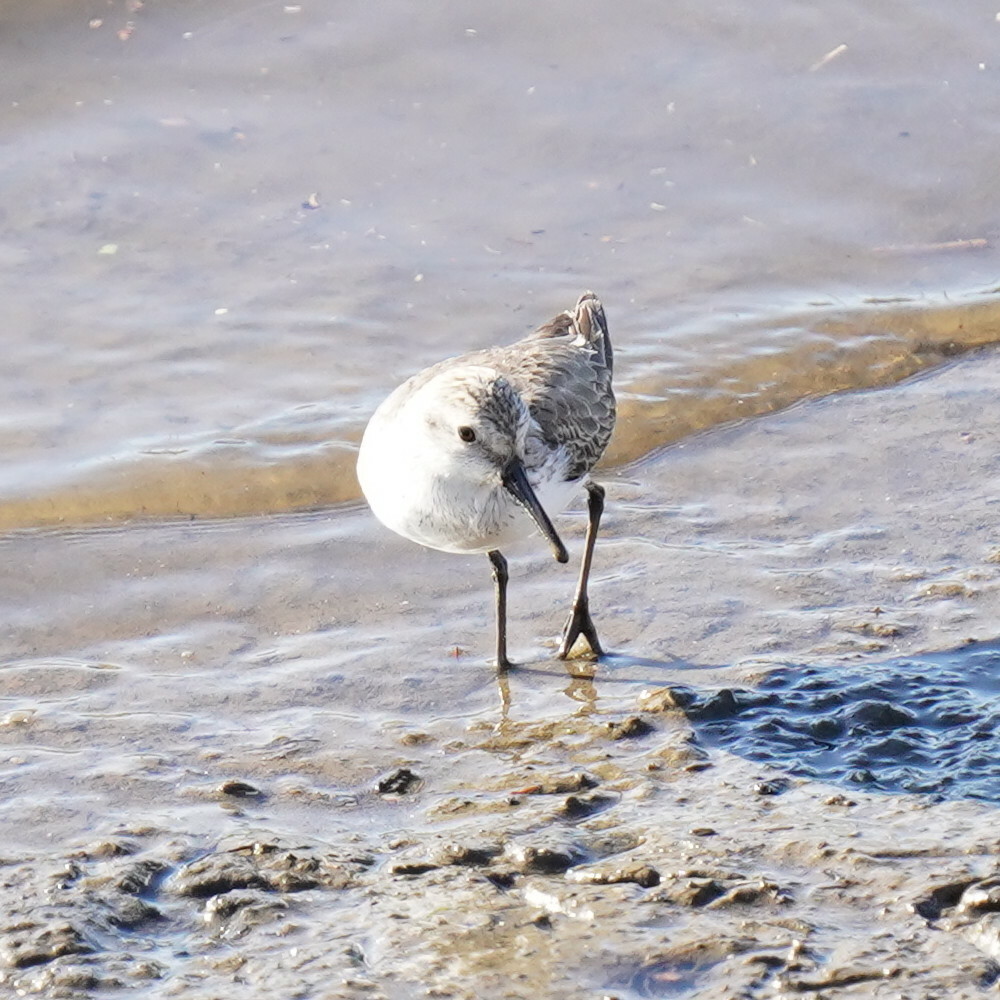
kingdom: Animalia
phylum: Chordata
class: Aves
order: Charadriiformes
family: Scolopacidae
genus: Calidris
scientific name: Calidris mauri
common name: Western sandpiper
